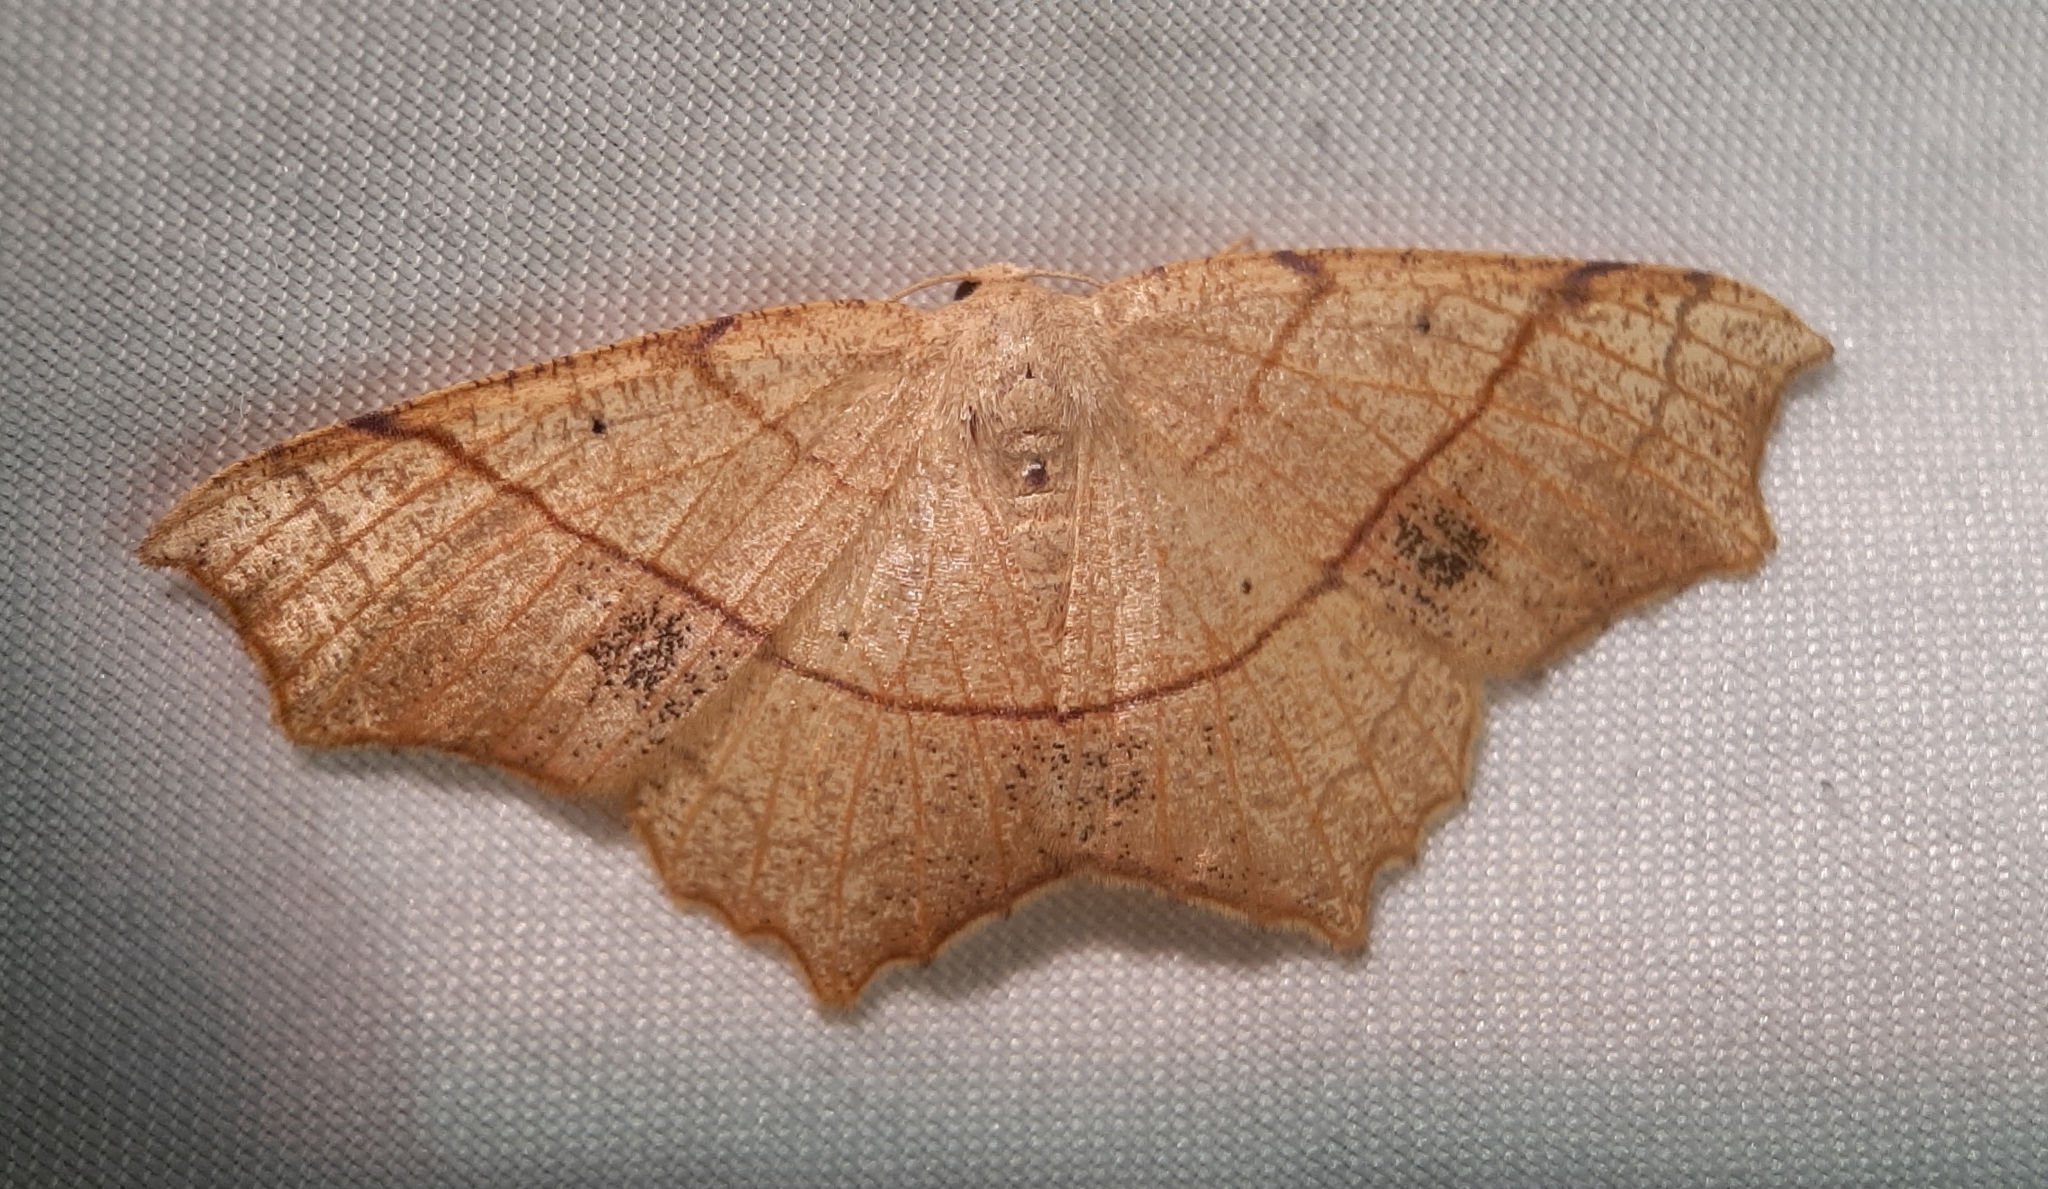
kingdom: Animalia
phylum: Arthropoda
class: Insecta
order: Lepidoptera
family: Geometridae
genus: Besma
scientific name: Besma quercivoraria
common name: Oak besma
